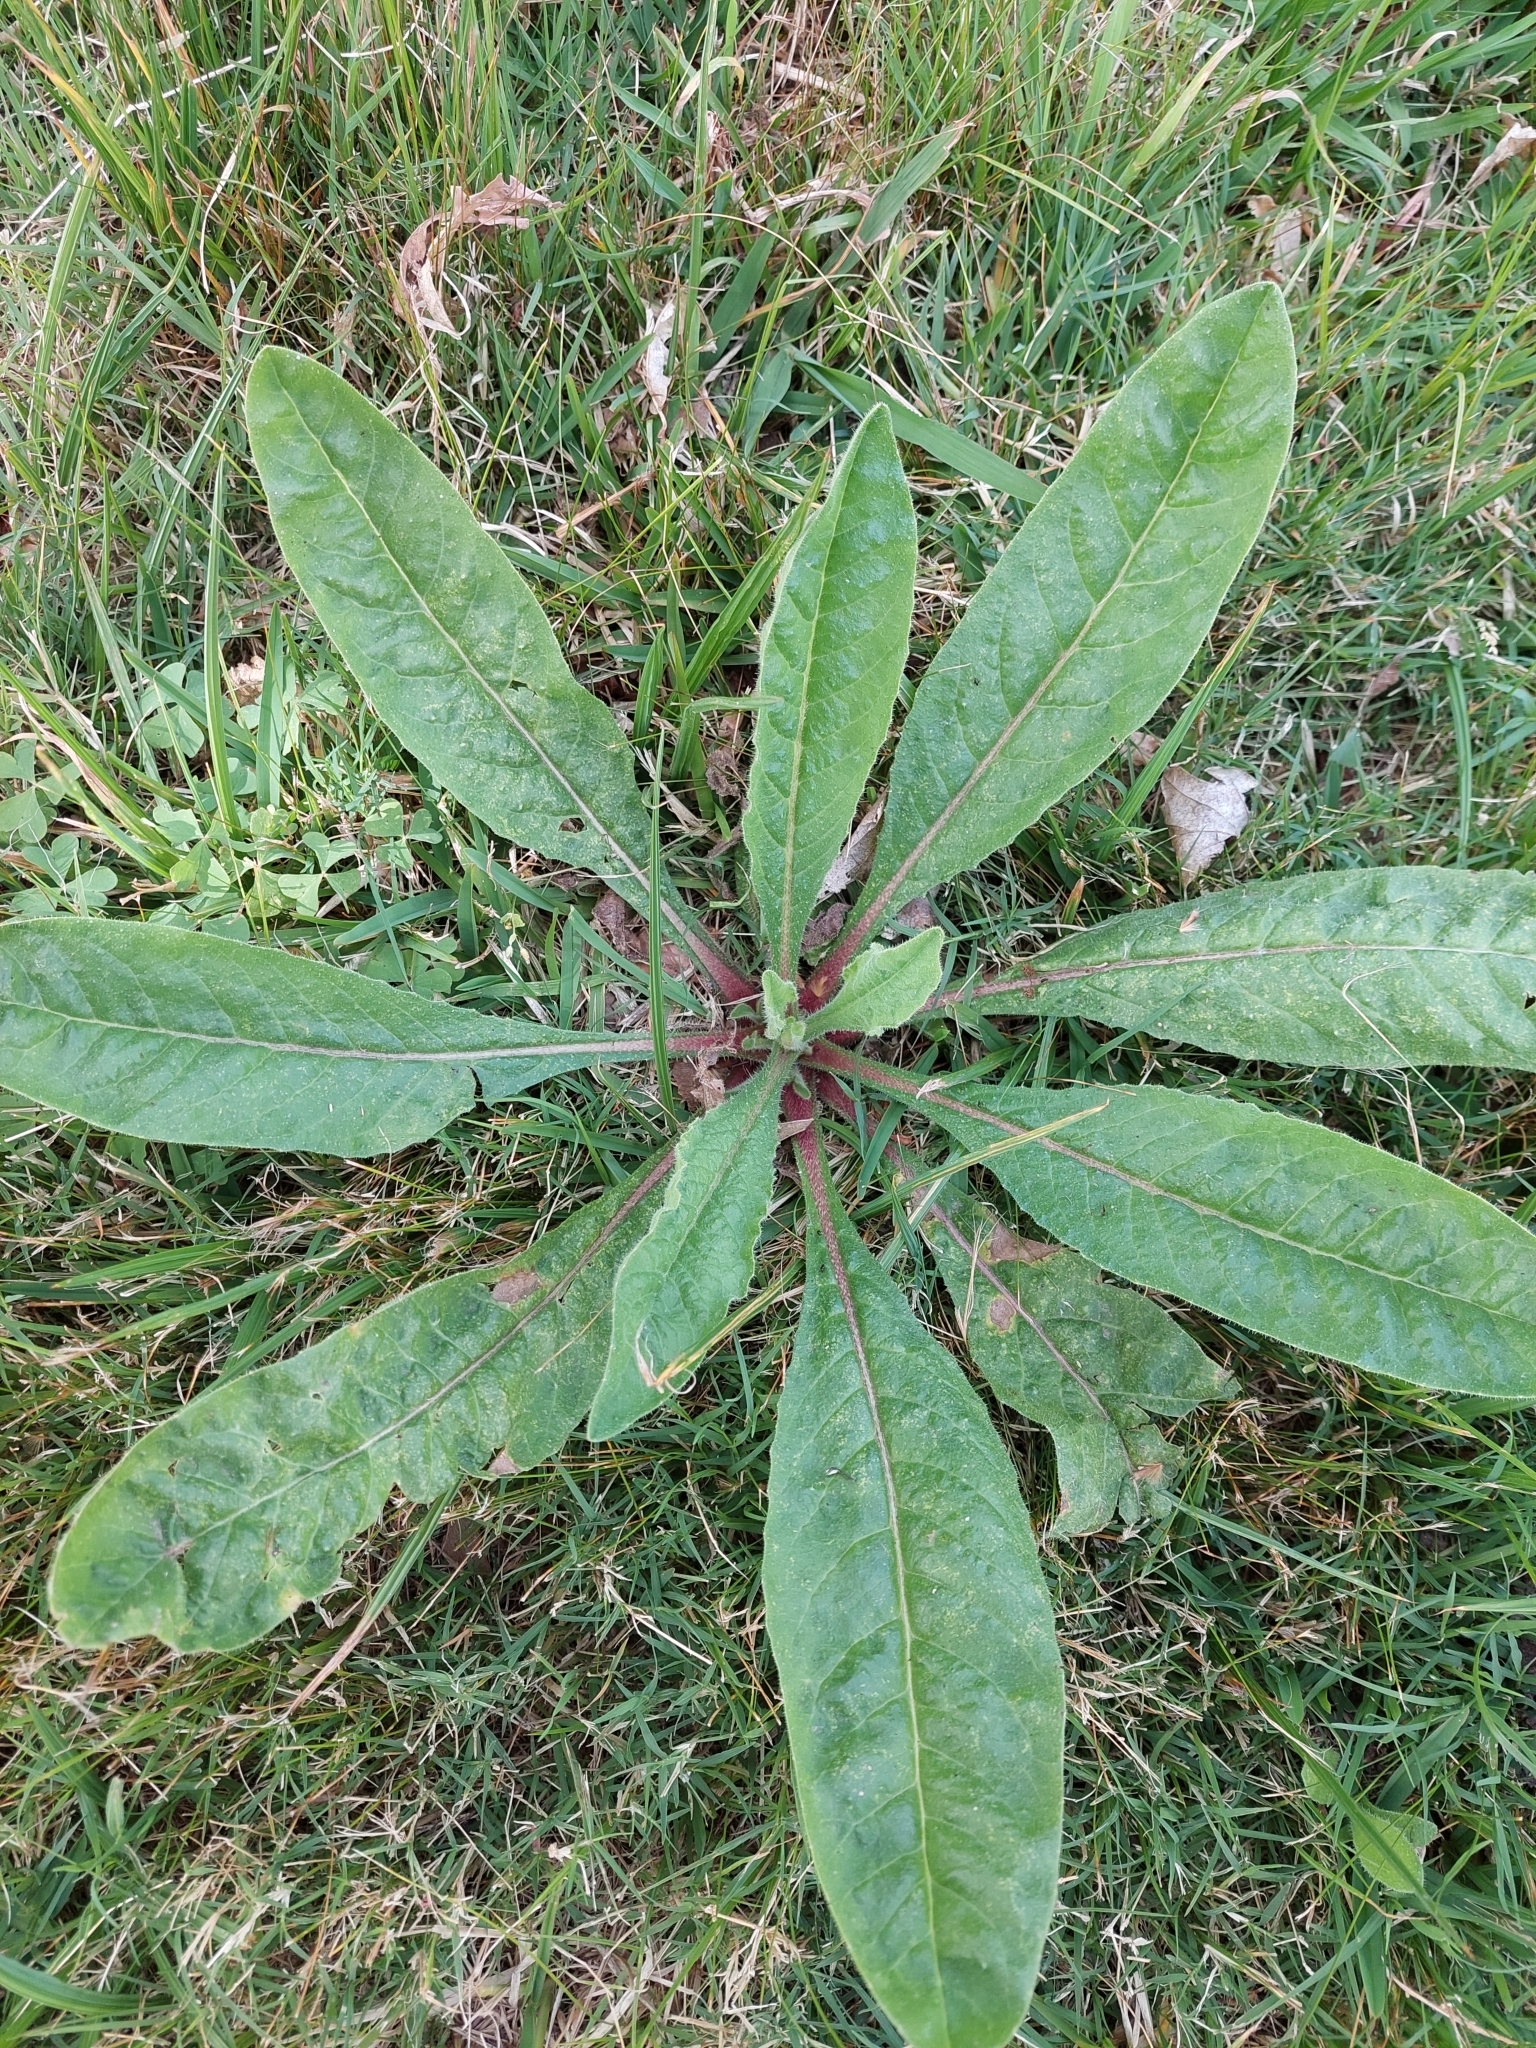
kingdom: Plantae
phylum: Tracheophyta
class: Magnoliopsida
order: Asterales
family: Asteraceae
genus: Helminthotheca
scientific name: Helminthotheca echioides
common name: Ox-tongue
